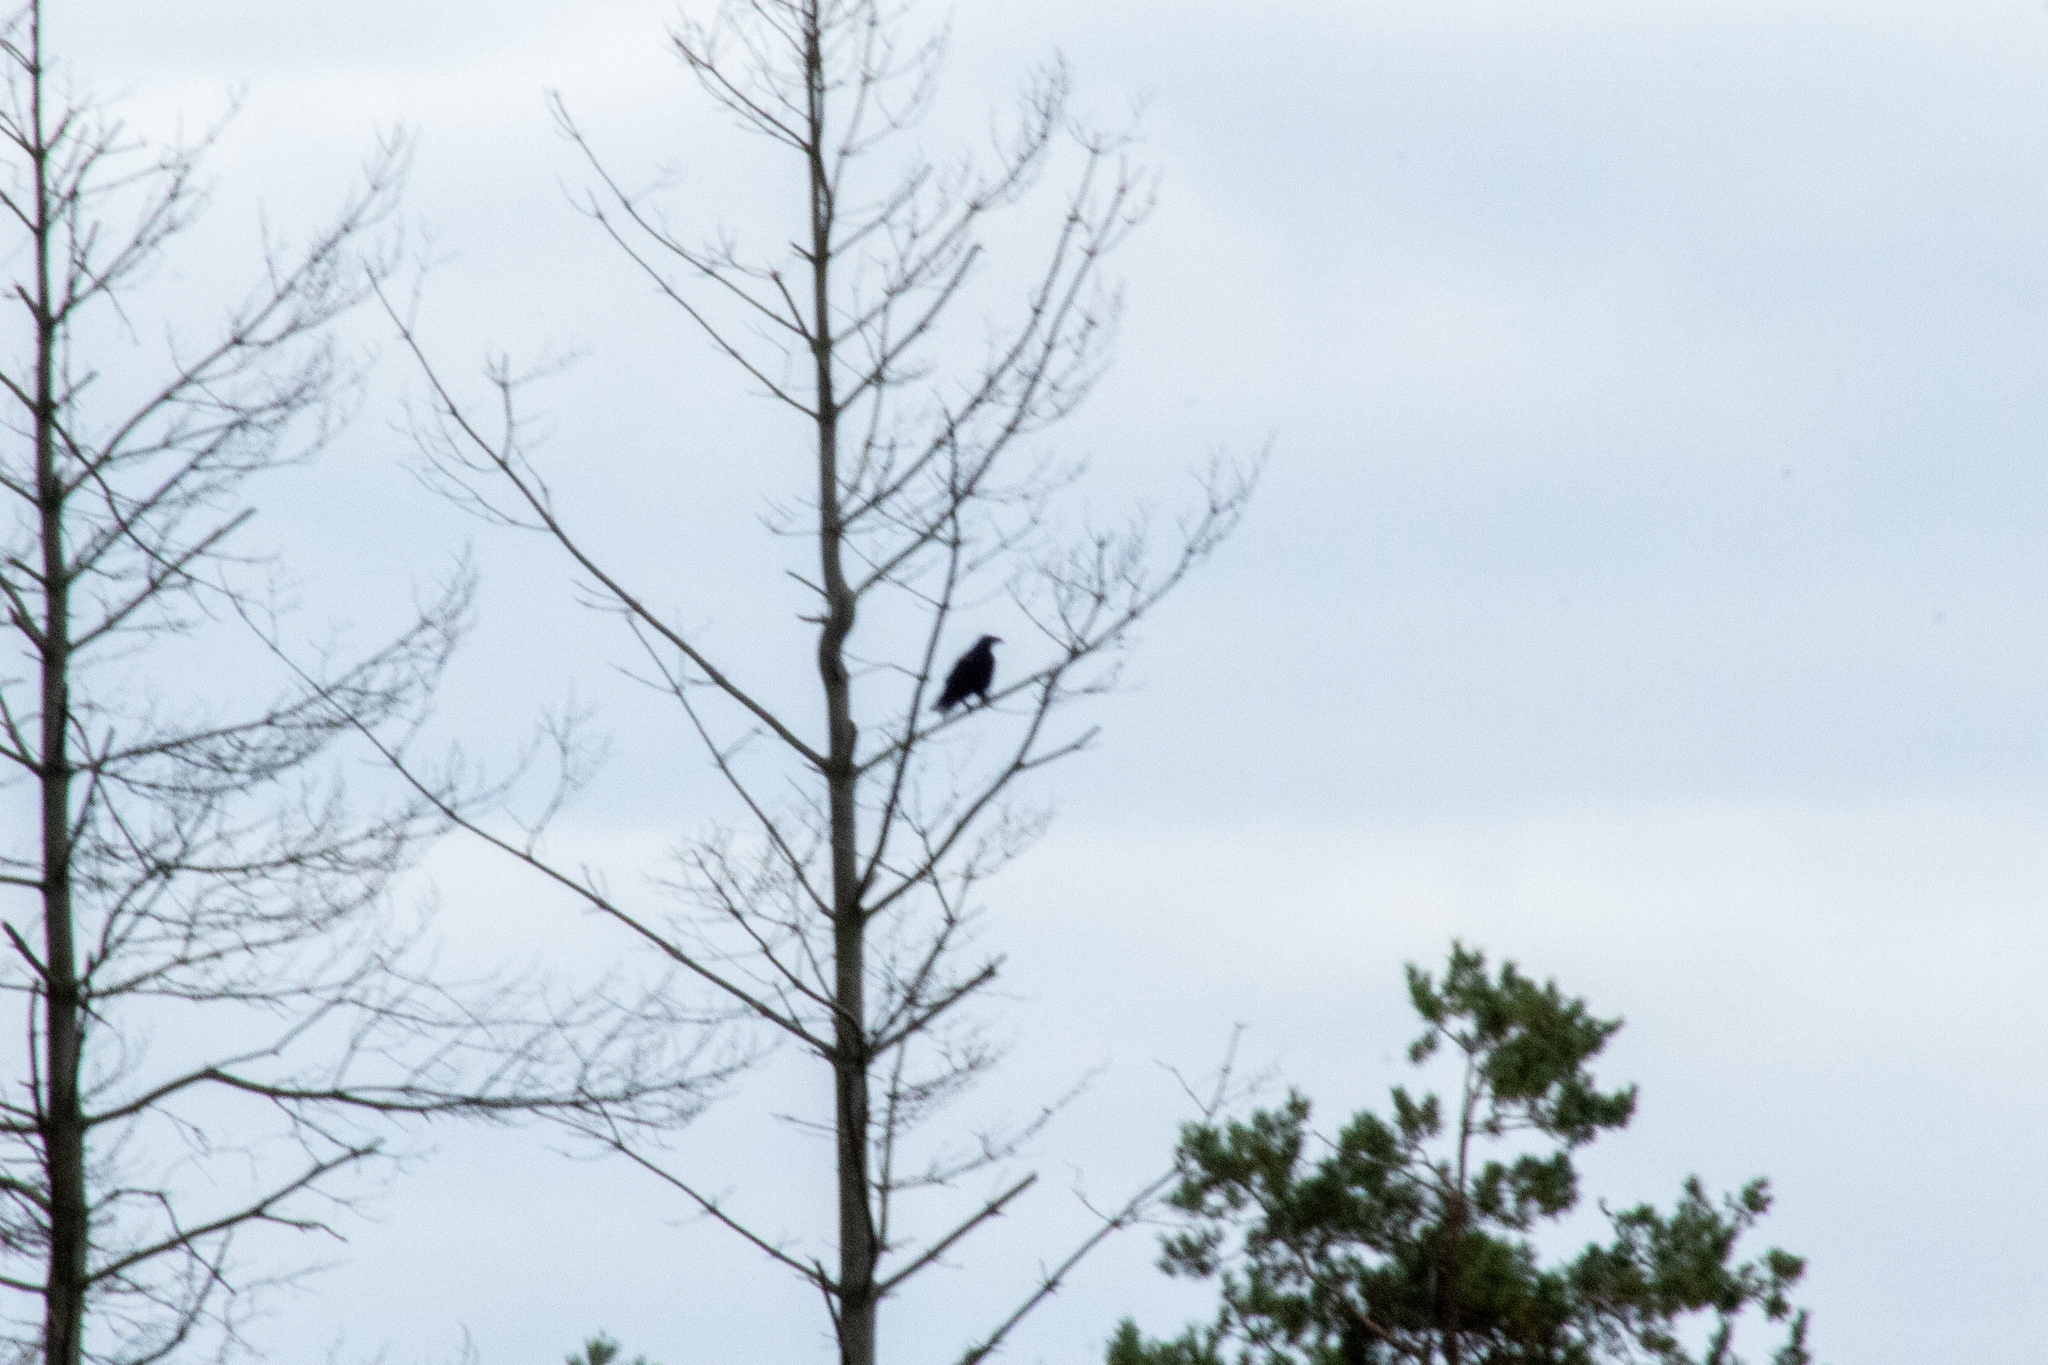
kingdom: Animalia
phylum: Chordata
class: Aves
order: Passeriformes
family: Corvidae
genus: Corvus
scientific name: Corvus corax
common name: Common raven
